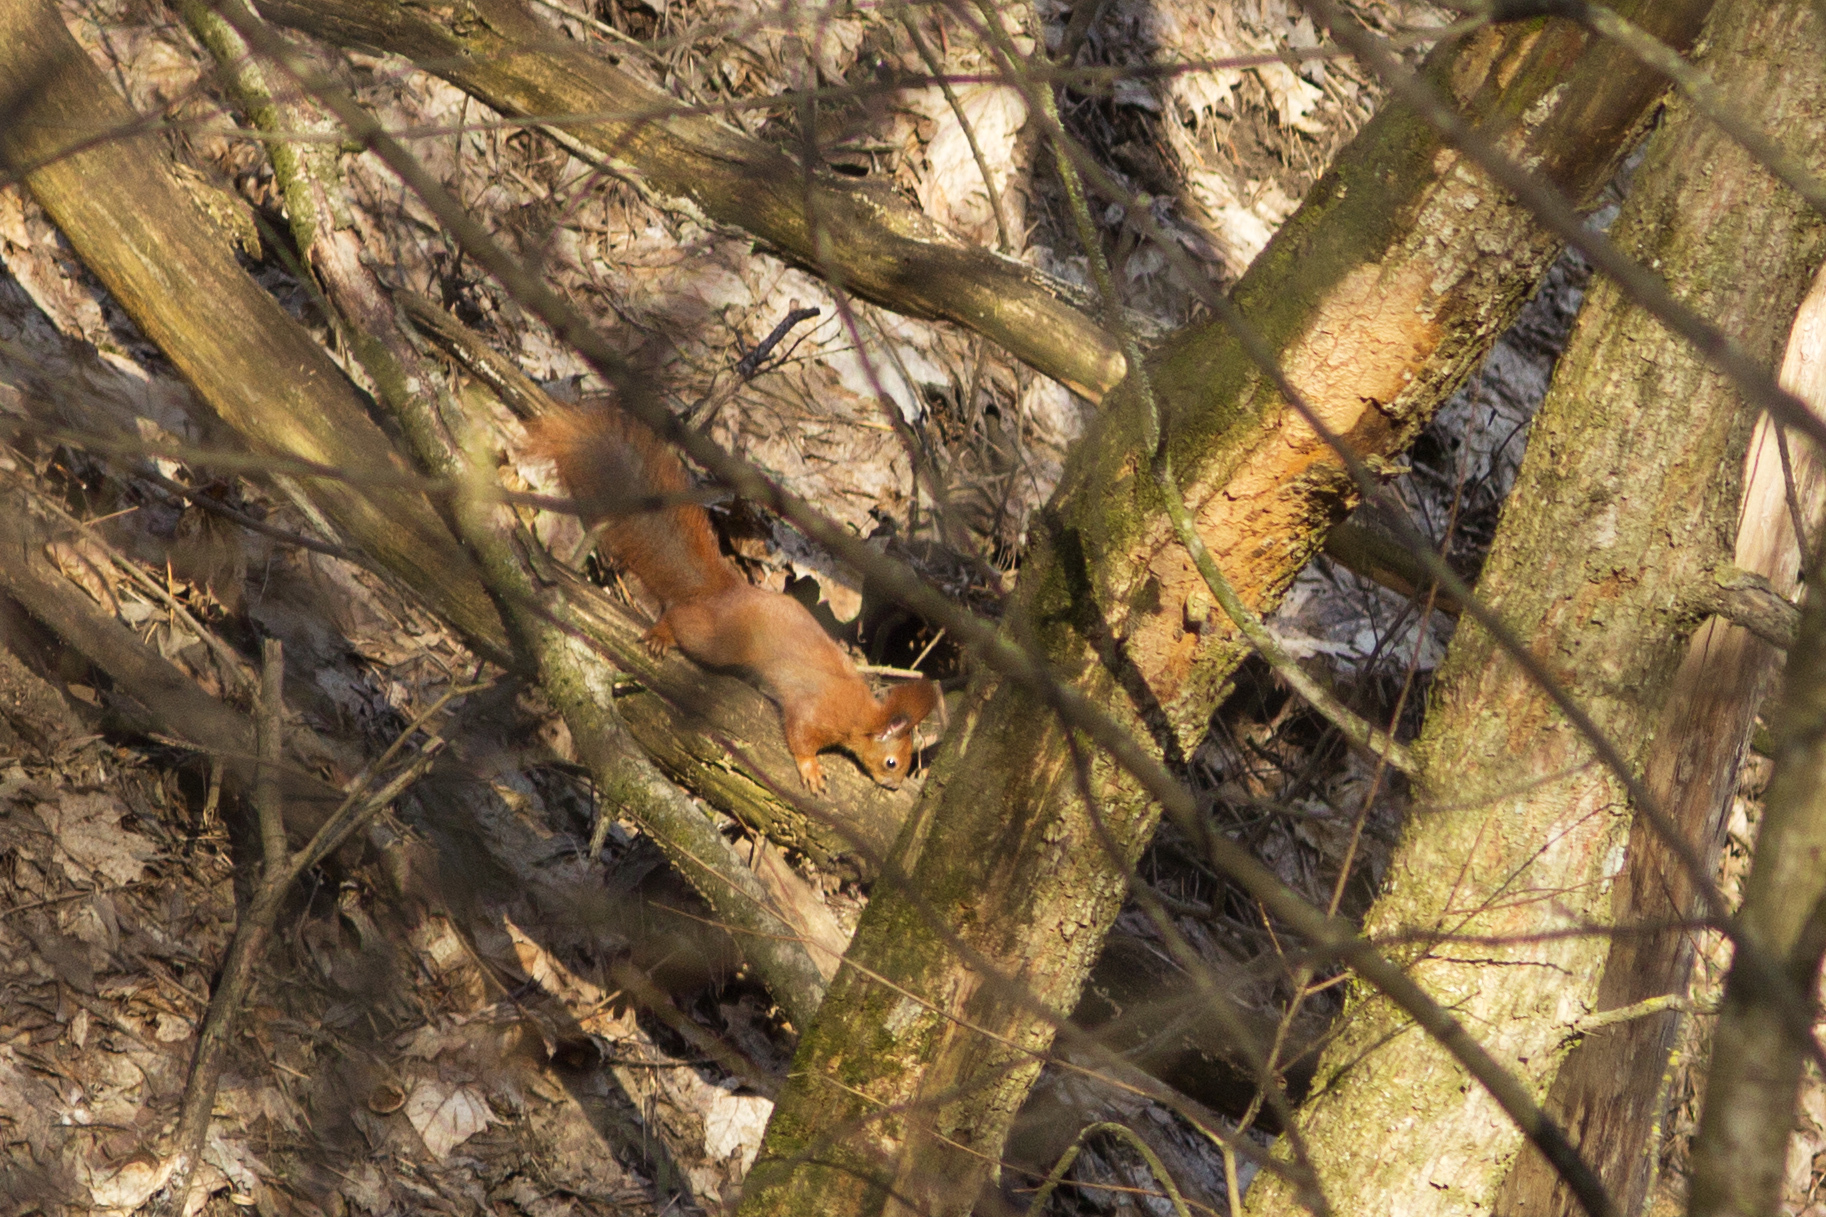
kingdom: Animalia
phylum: Chordata
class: Mammalia
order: Rodentia
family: Sciuridae
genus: Sciurus
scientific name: Sciurus vulgaris
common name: Eurasian red squirrel
